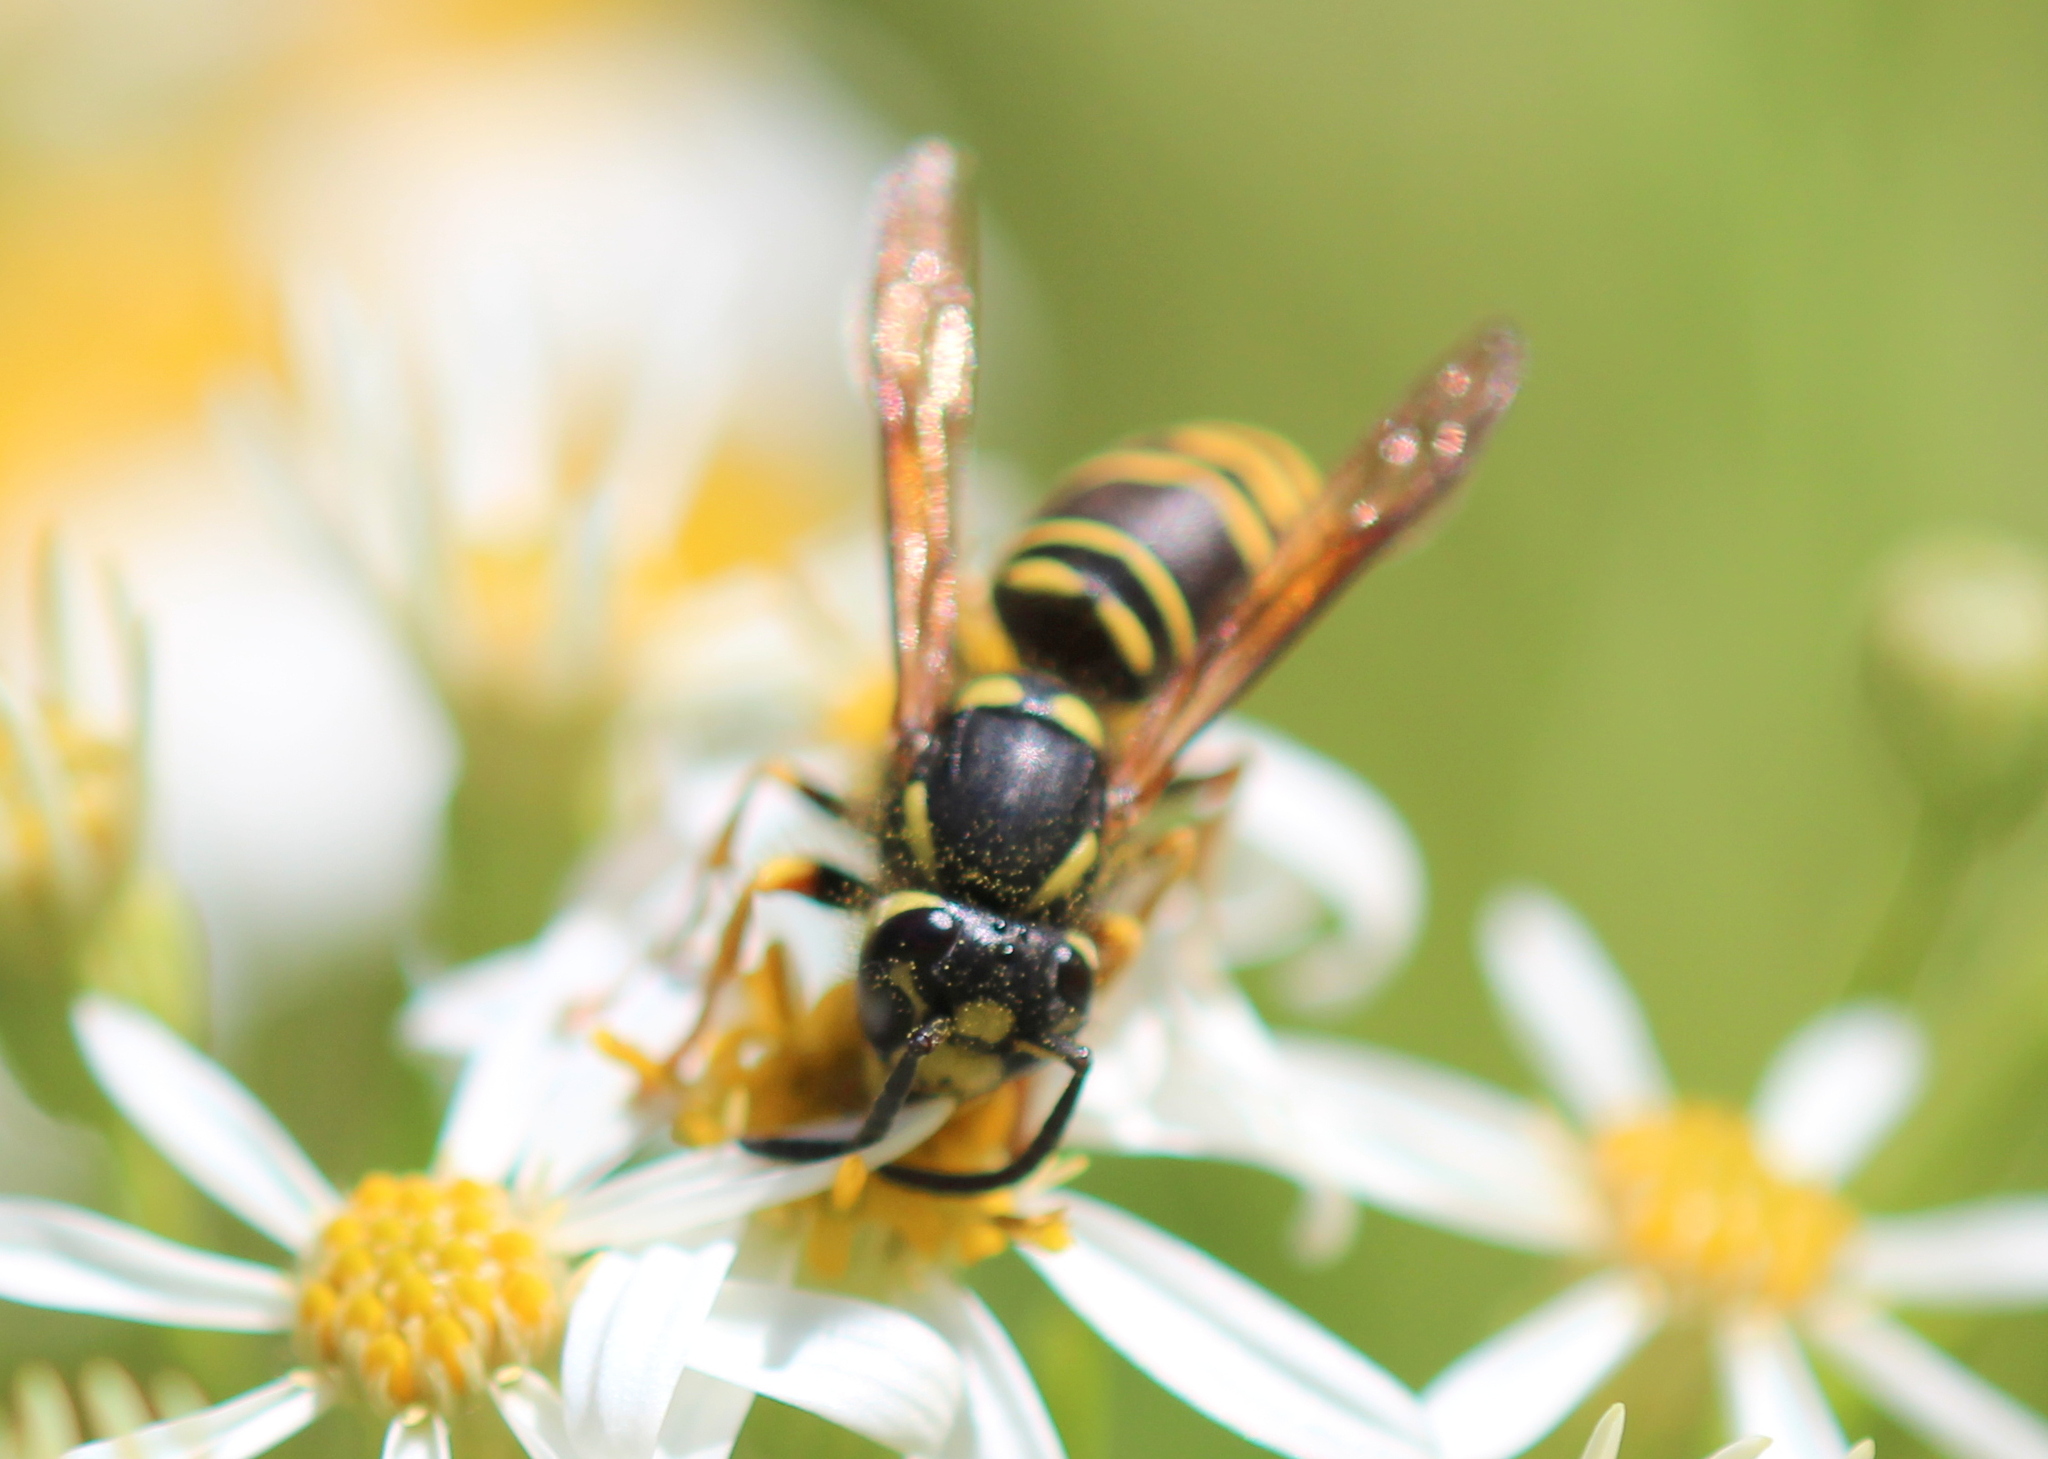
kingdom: Animalia
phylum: Arthropoda
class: Insecta
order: Hymenoptera
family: Vespidae
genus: Vespula
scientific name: Vespula vidua
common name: Widow yellowjacket
